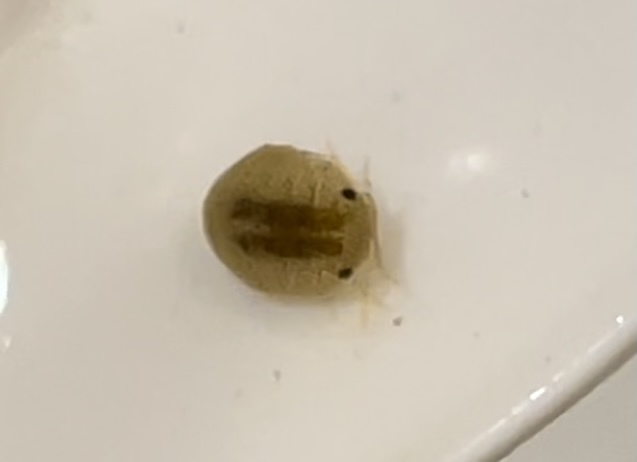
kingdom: Animalia
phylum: Arthropoda
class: Malacostraca
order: Isopoda
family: Sphaeromatidae
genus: Gnorimosphaeroma
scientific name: Gnorimosphaeroma noblei
